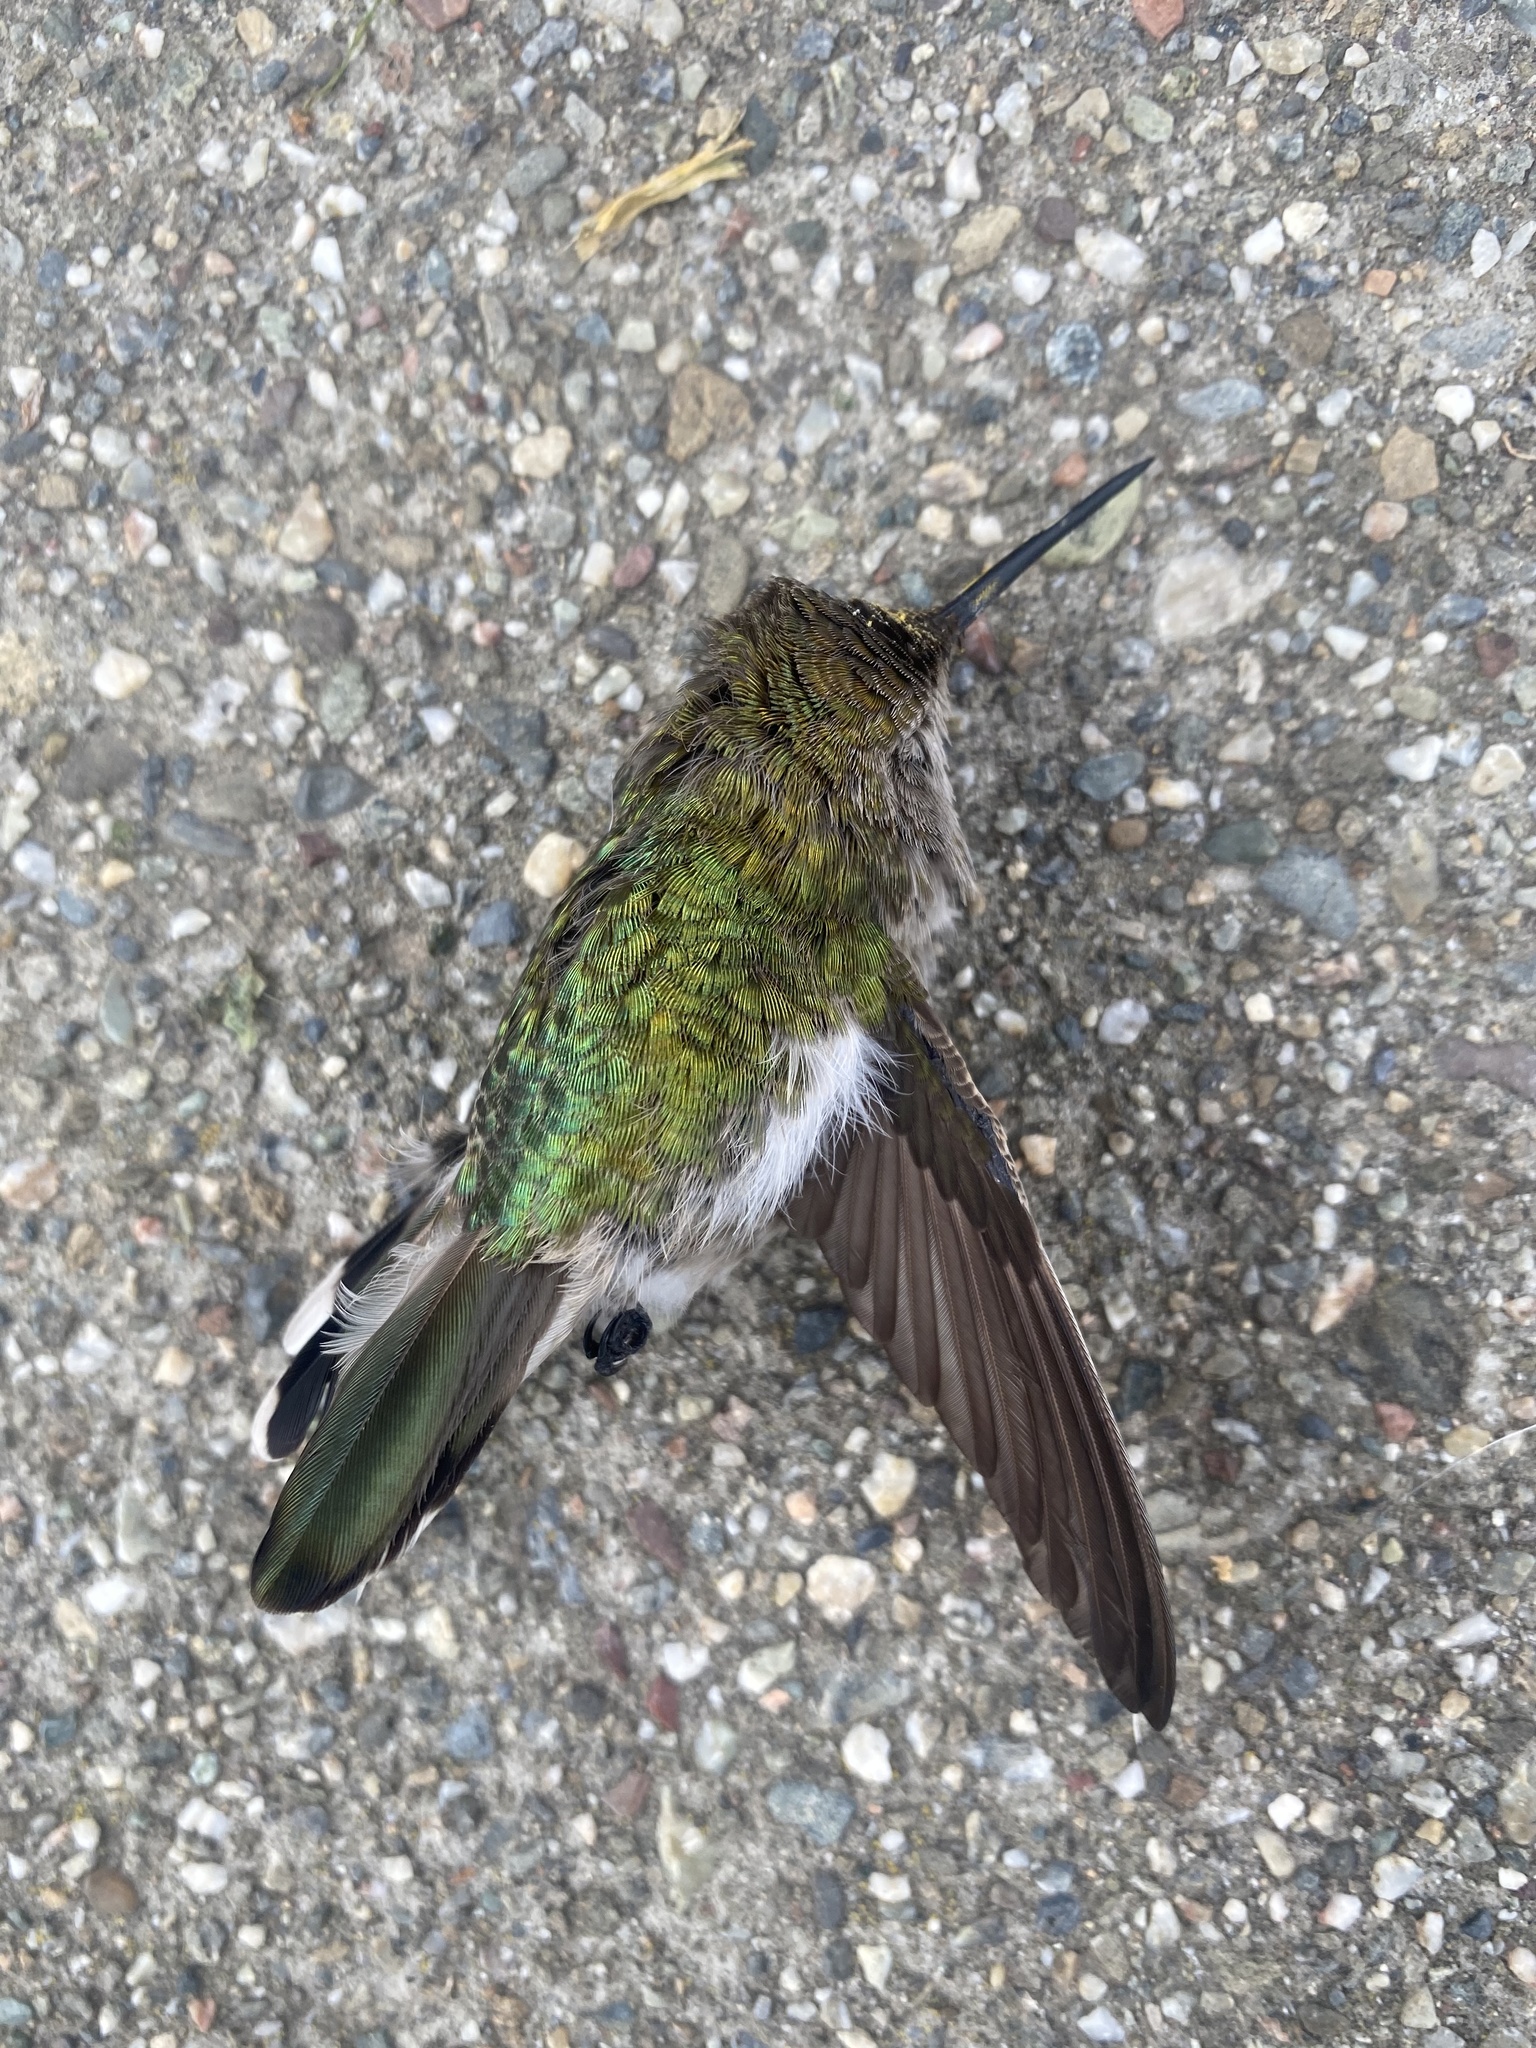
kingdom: Animalia
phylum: Chordata
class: Aves
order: Apodiformes
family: Trochilidae
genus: Calypte
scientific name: Calypte anna
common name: Anna's hummingbird
